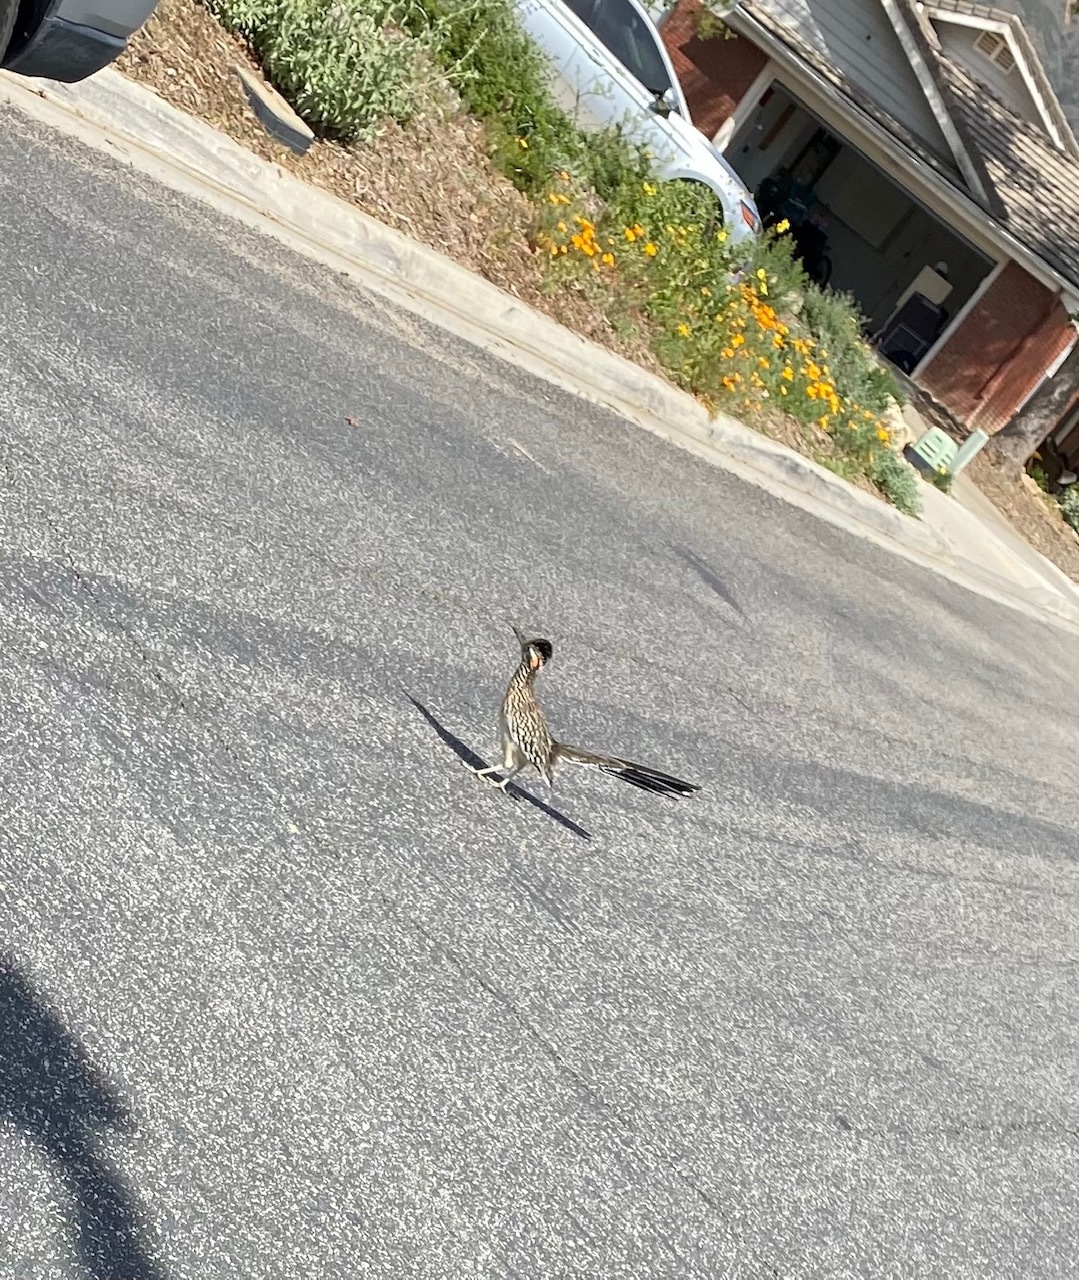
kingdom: Animalia
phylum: Chordata
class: Aves
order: Cuculiformes
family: Cuculidae
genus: Geococcyx
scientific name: Geococcyx californianus
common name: Greater roadrunner
